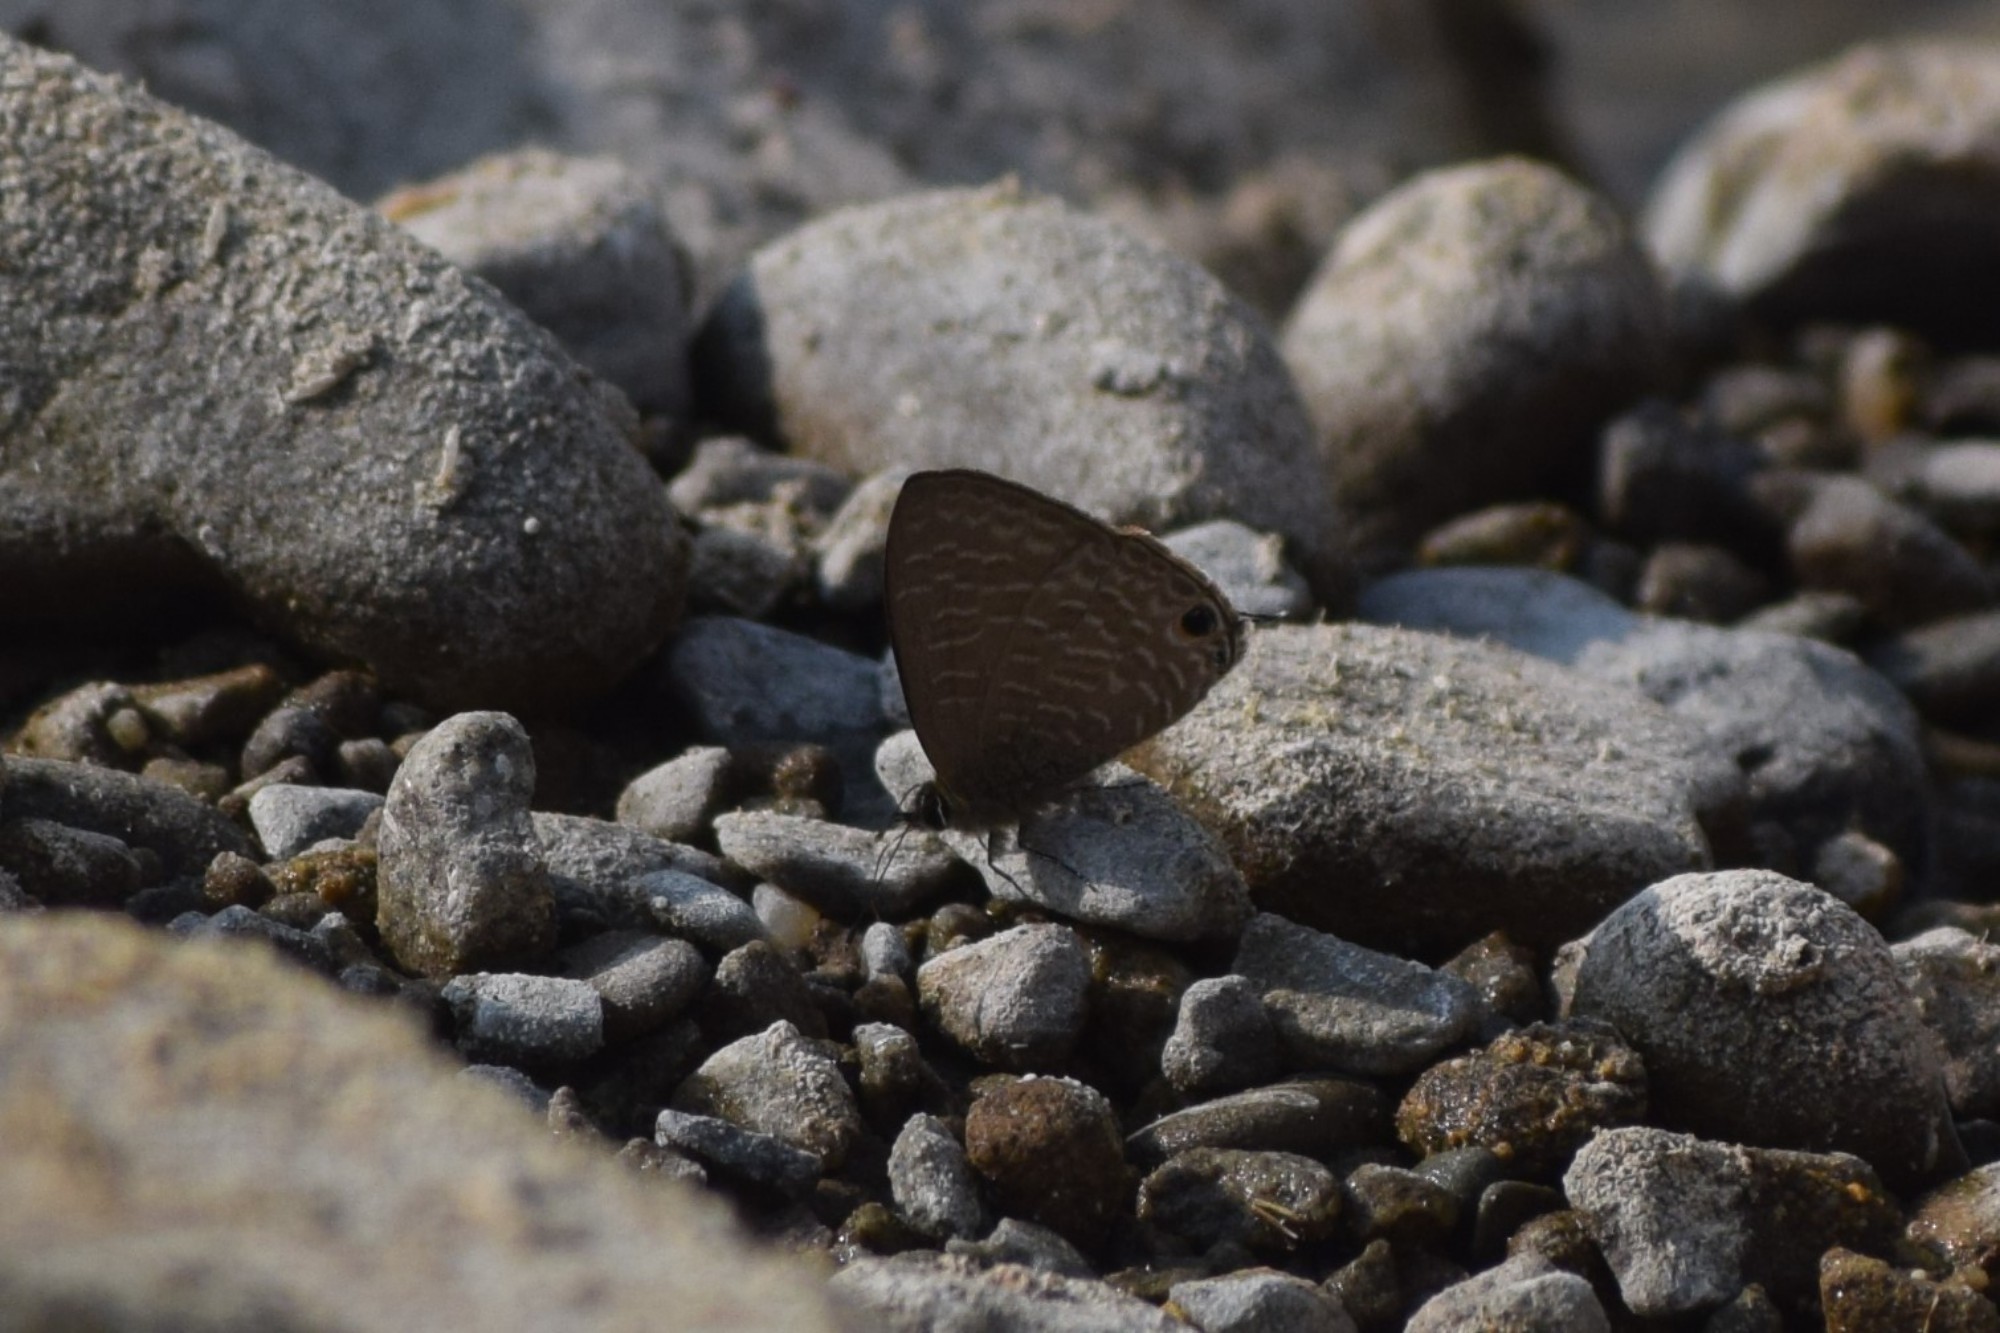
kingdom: Animalia
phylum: Arthropoda
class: Insecta
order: Lepidoptera
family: Lycaenidae
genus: Prosotas
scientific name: Prosotas nora
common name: Common line blue
